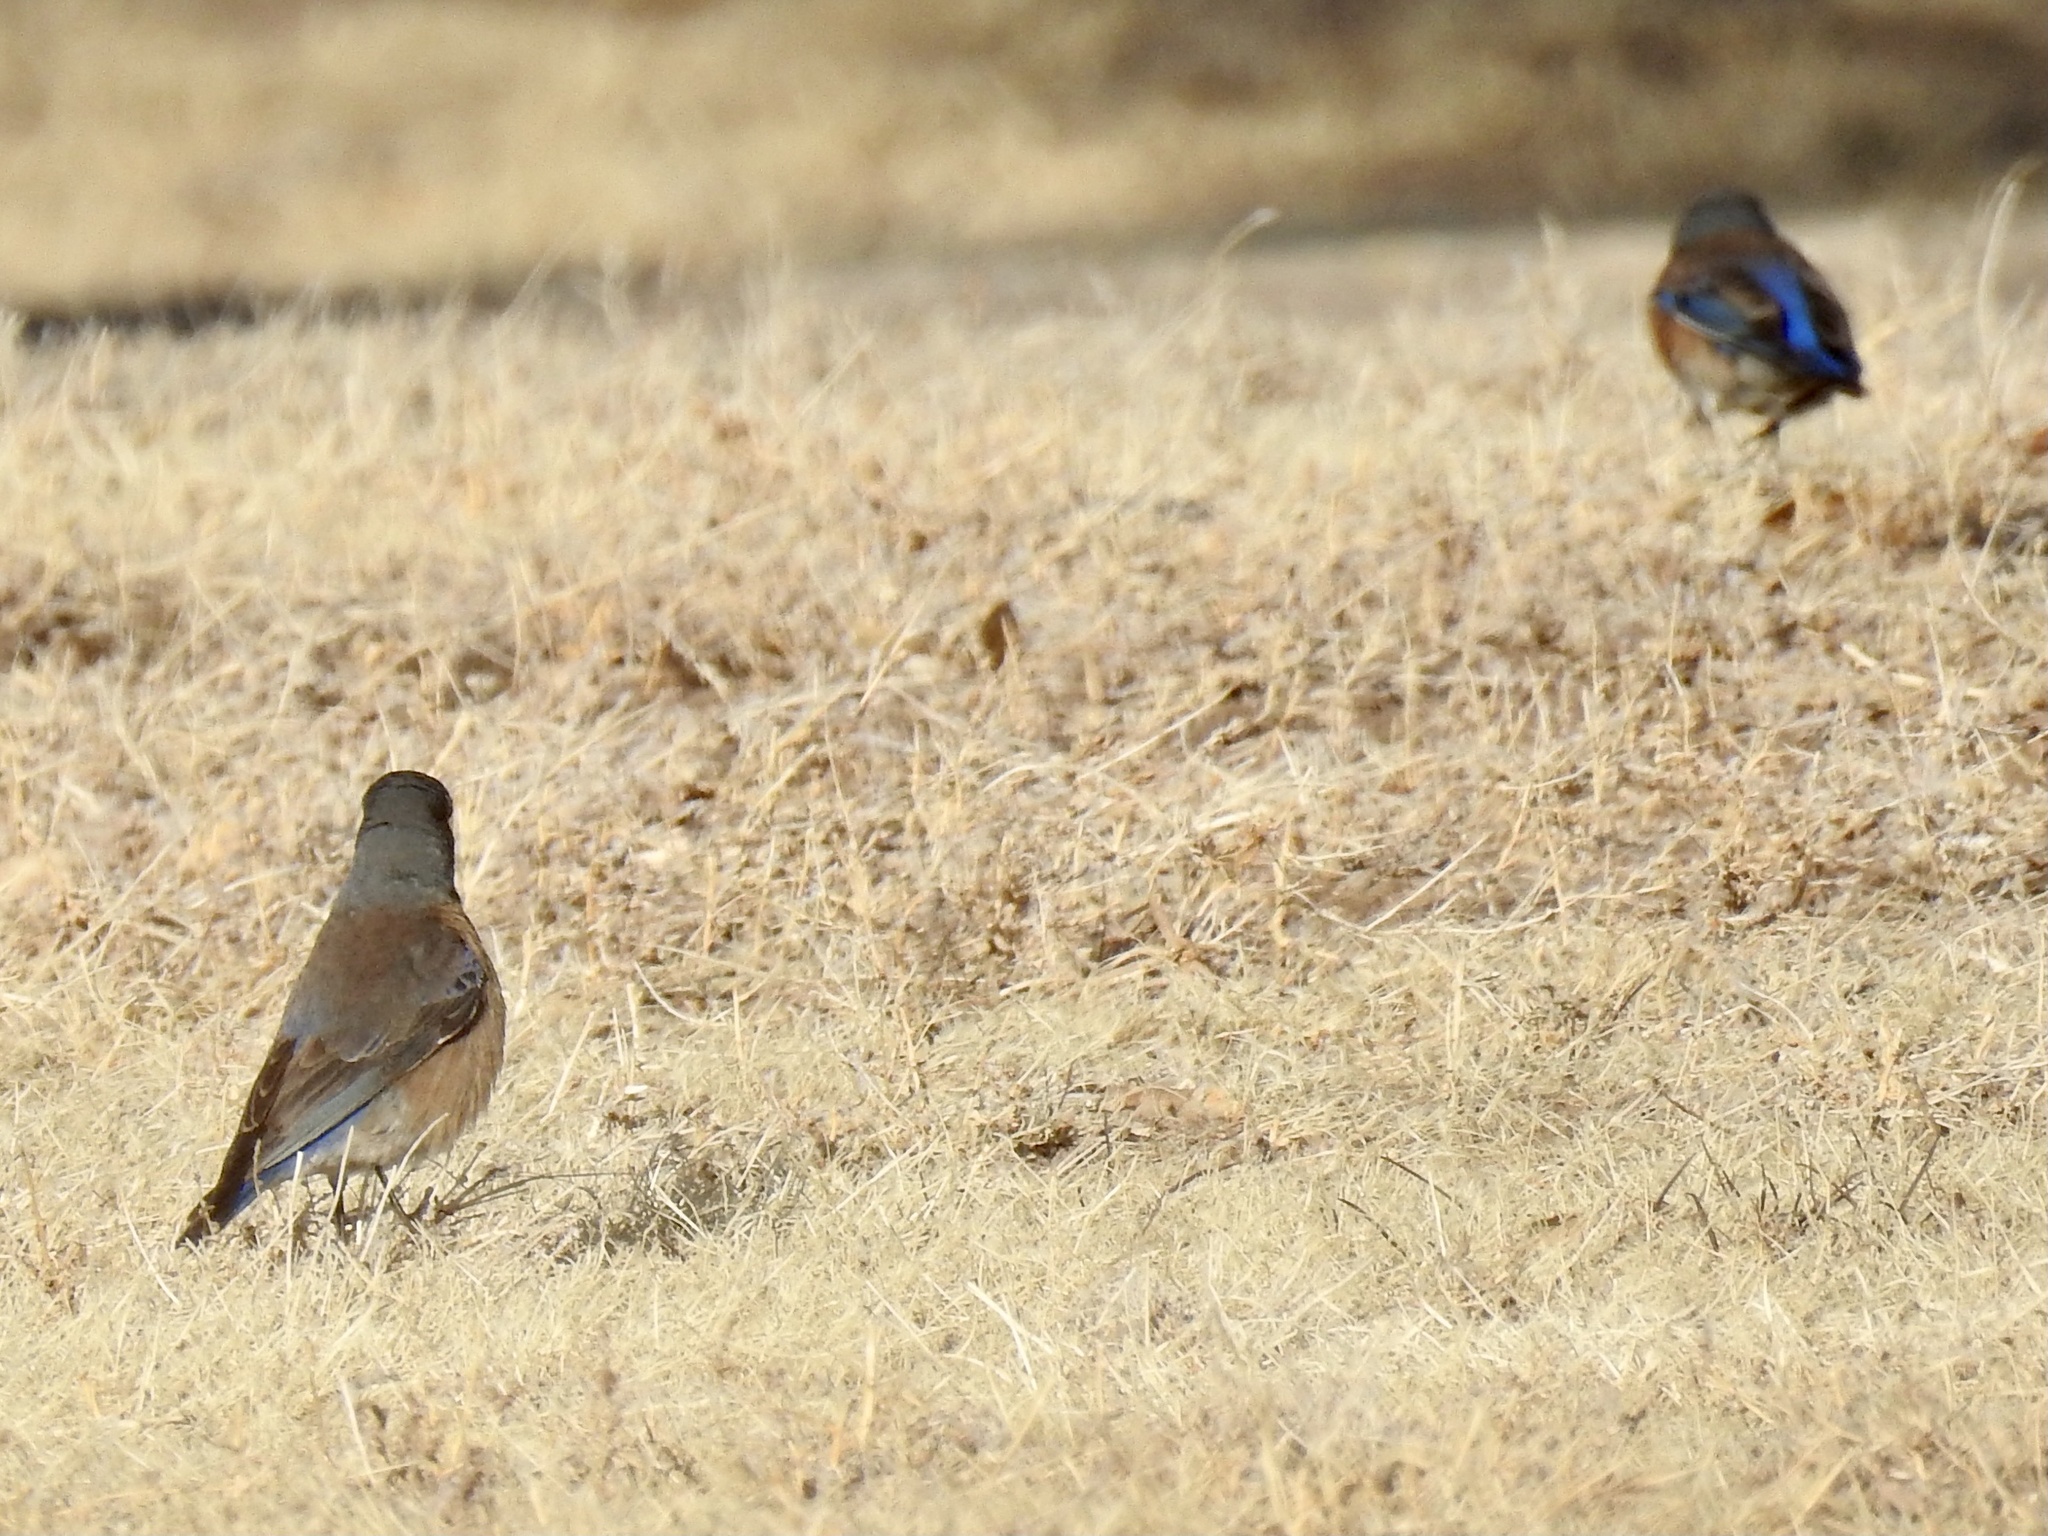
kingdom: Animalia
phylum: Chordata
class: Aves
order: Passeriformes
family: Turdidae
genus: Sialia
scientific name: Sialia mexicana
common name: Western bluebird
